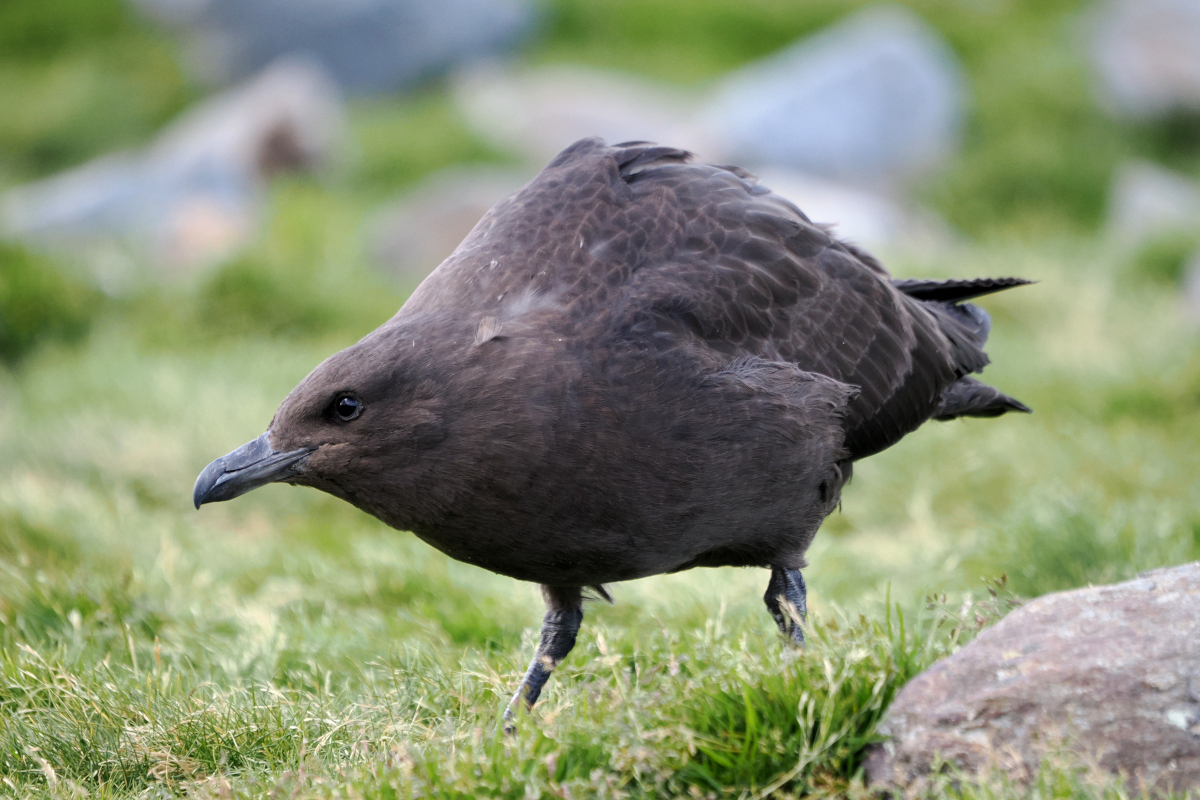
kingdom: Animalia
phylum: Chordata
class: Aves
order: Charadriiformes
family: Stercorariidae
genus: Stercorarius
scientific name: Stercorarius antarcticus
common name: Brown skua
